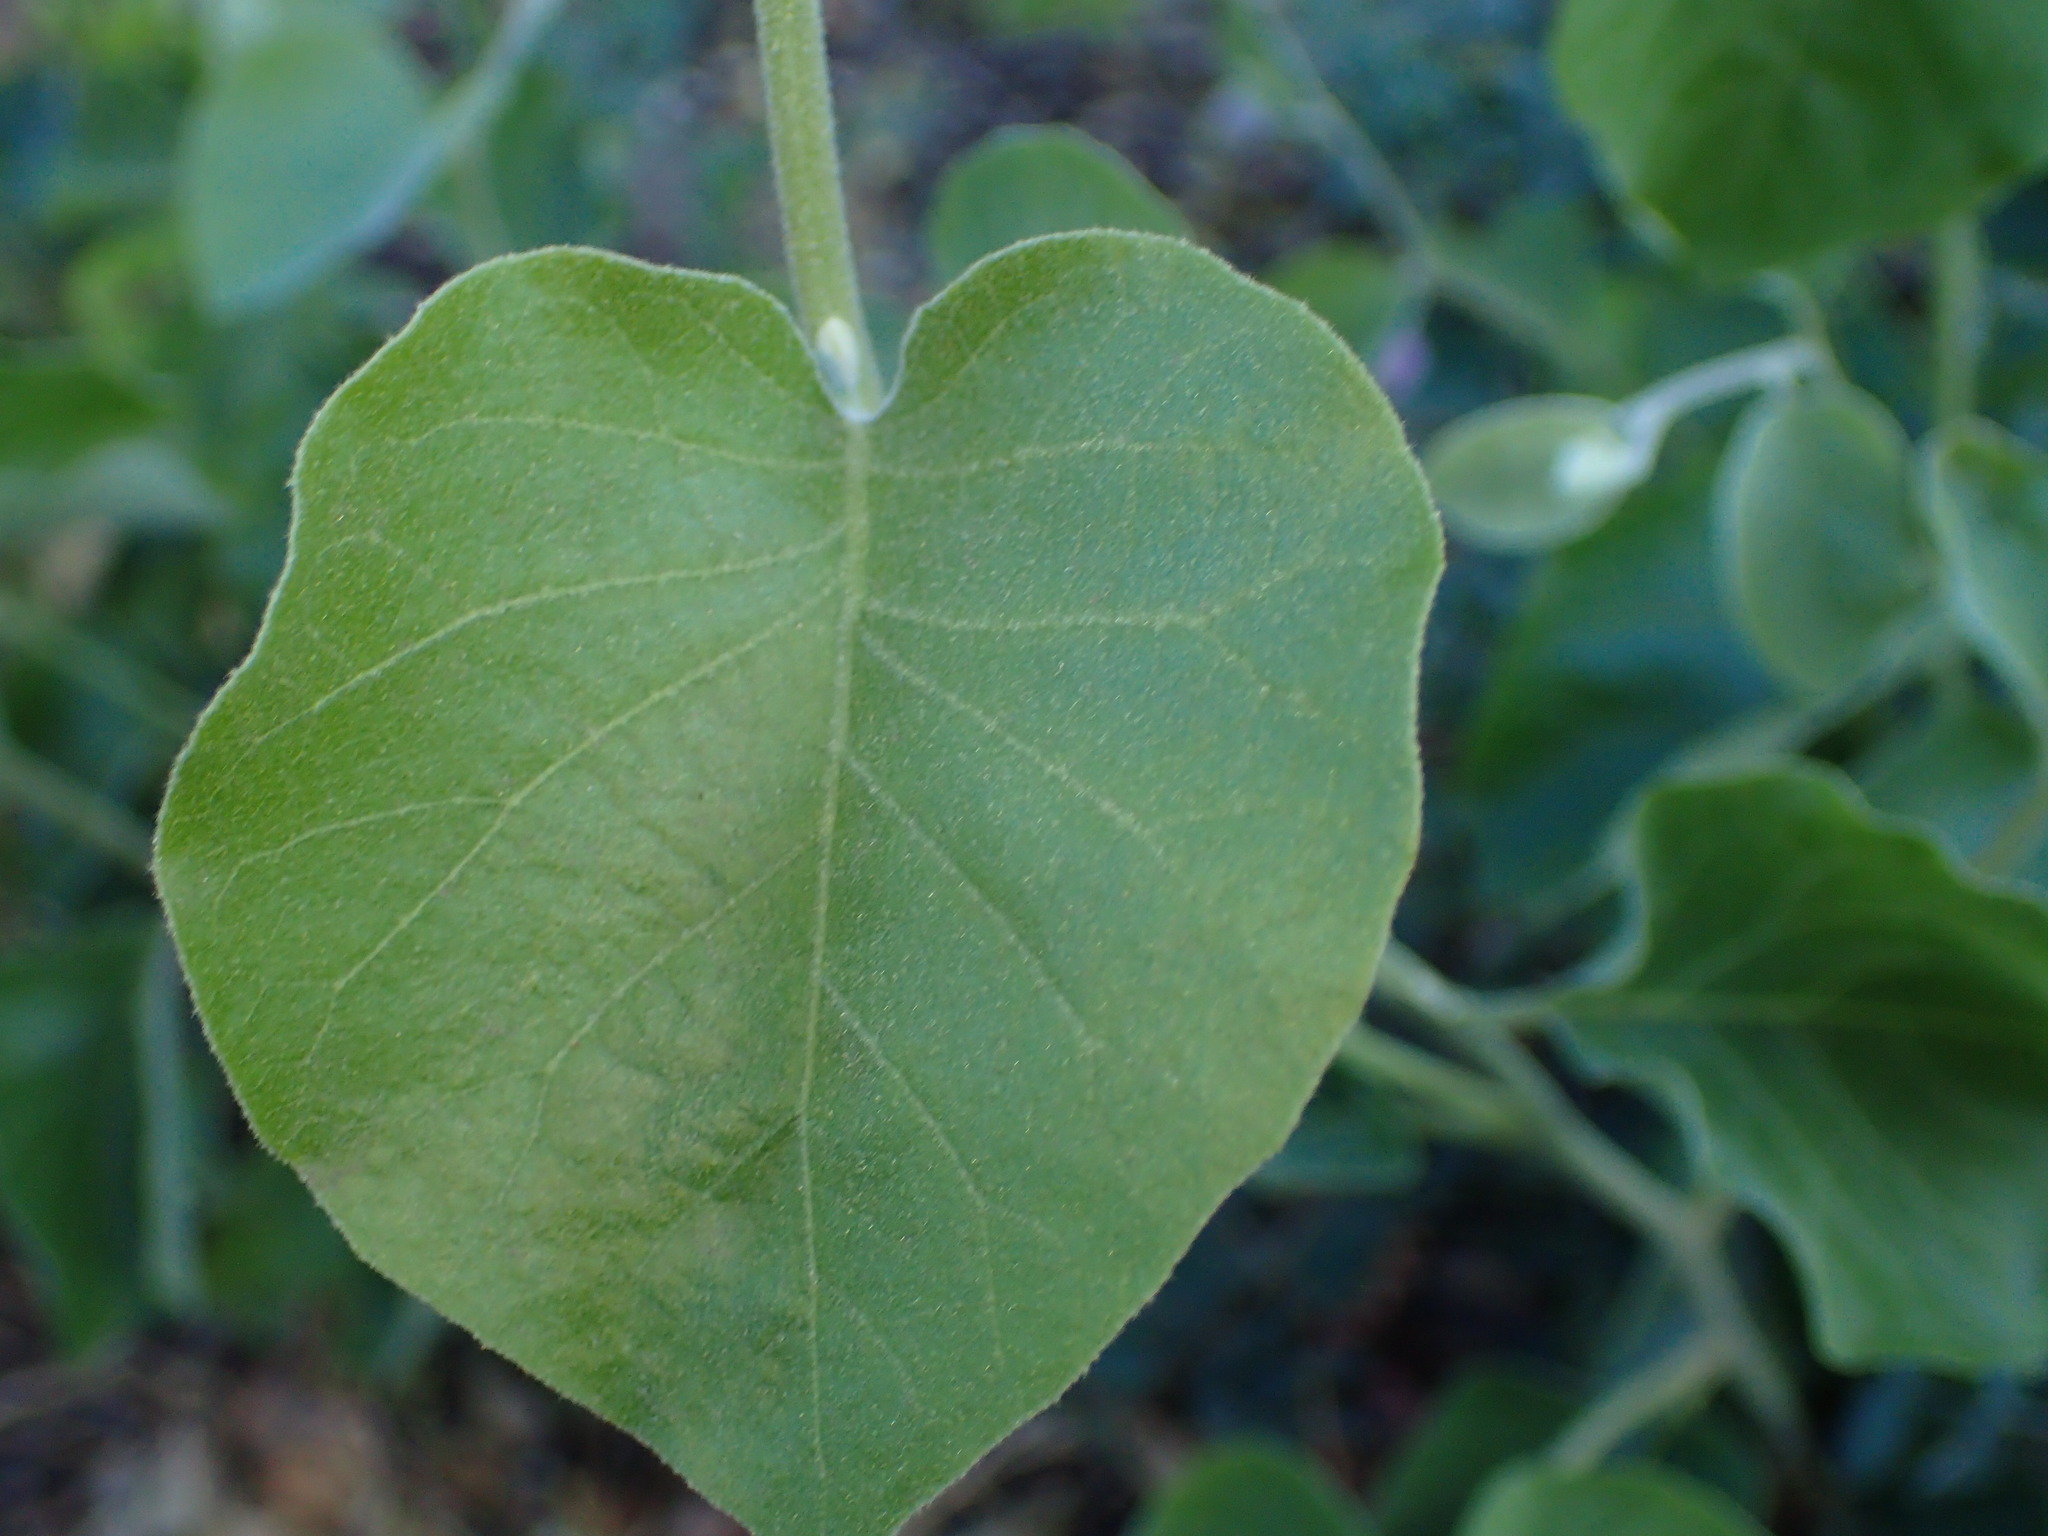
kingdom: Plantae
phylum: Tracheophyta
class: Magnoliopsida
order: Ericales
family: Styracaceae
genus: Styrax
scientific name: Styrax redivivus
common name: California styrax
